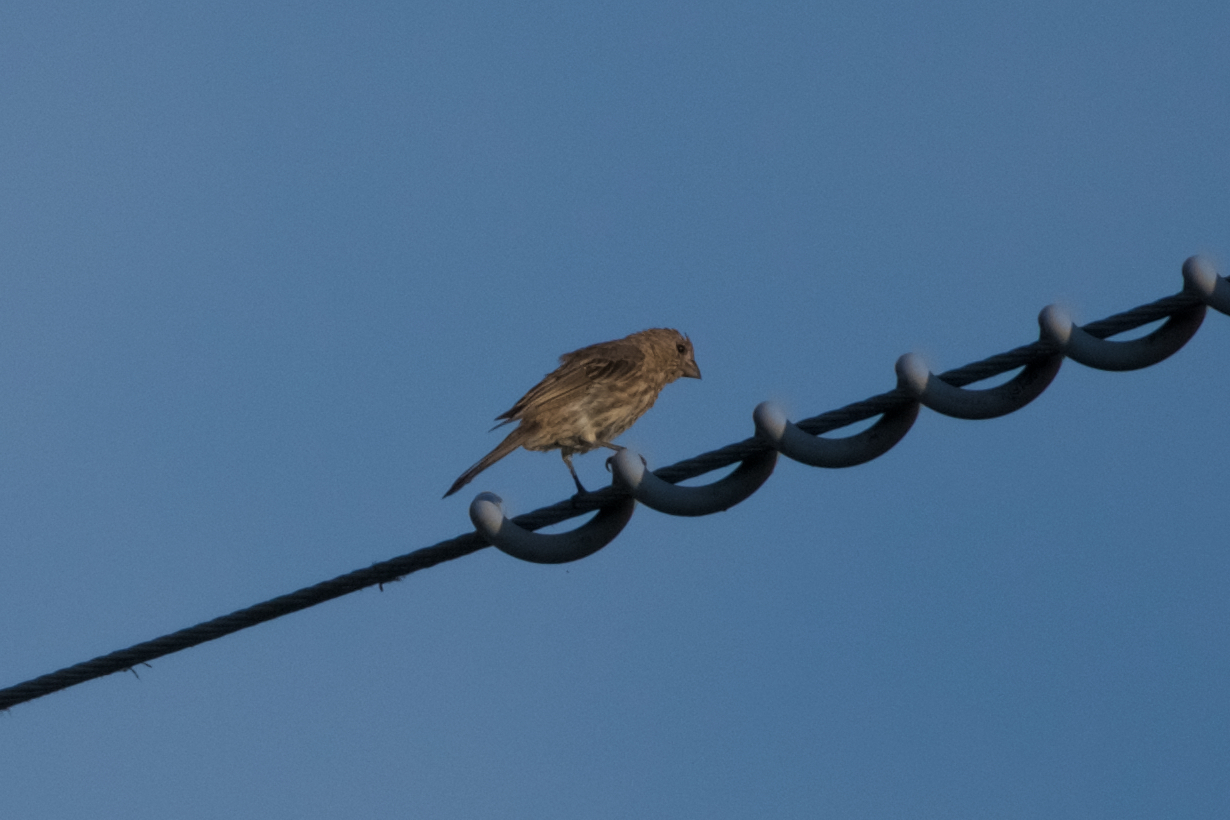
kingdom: Animalia
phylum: Chordata
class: Aves
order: Passeriformes
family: Fringillidae
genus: Haemorhous
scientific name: Haemorhous mexicanus
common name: House finch
